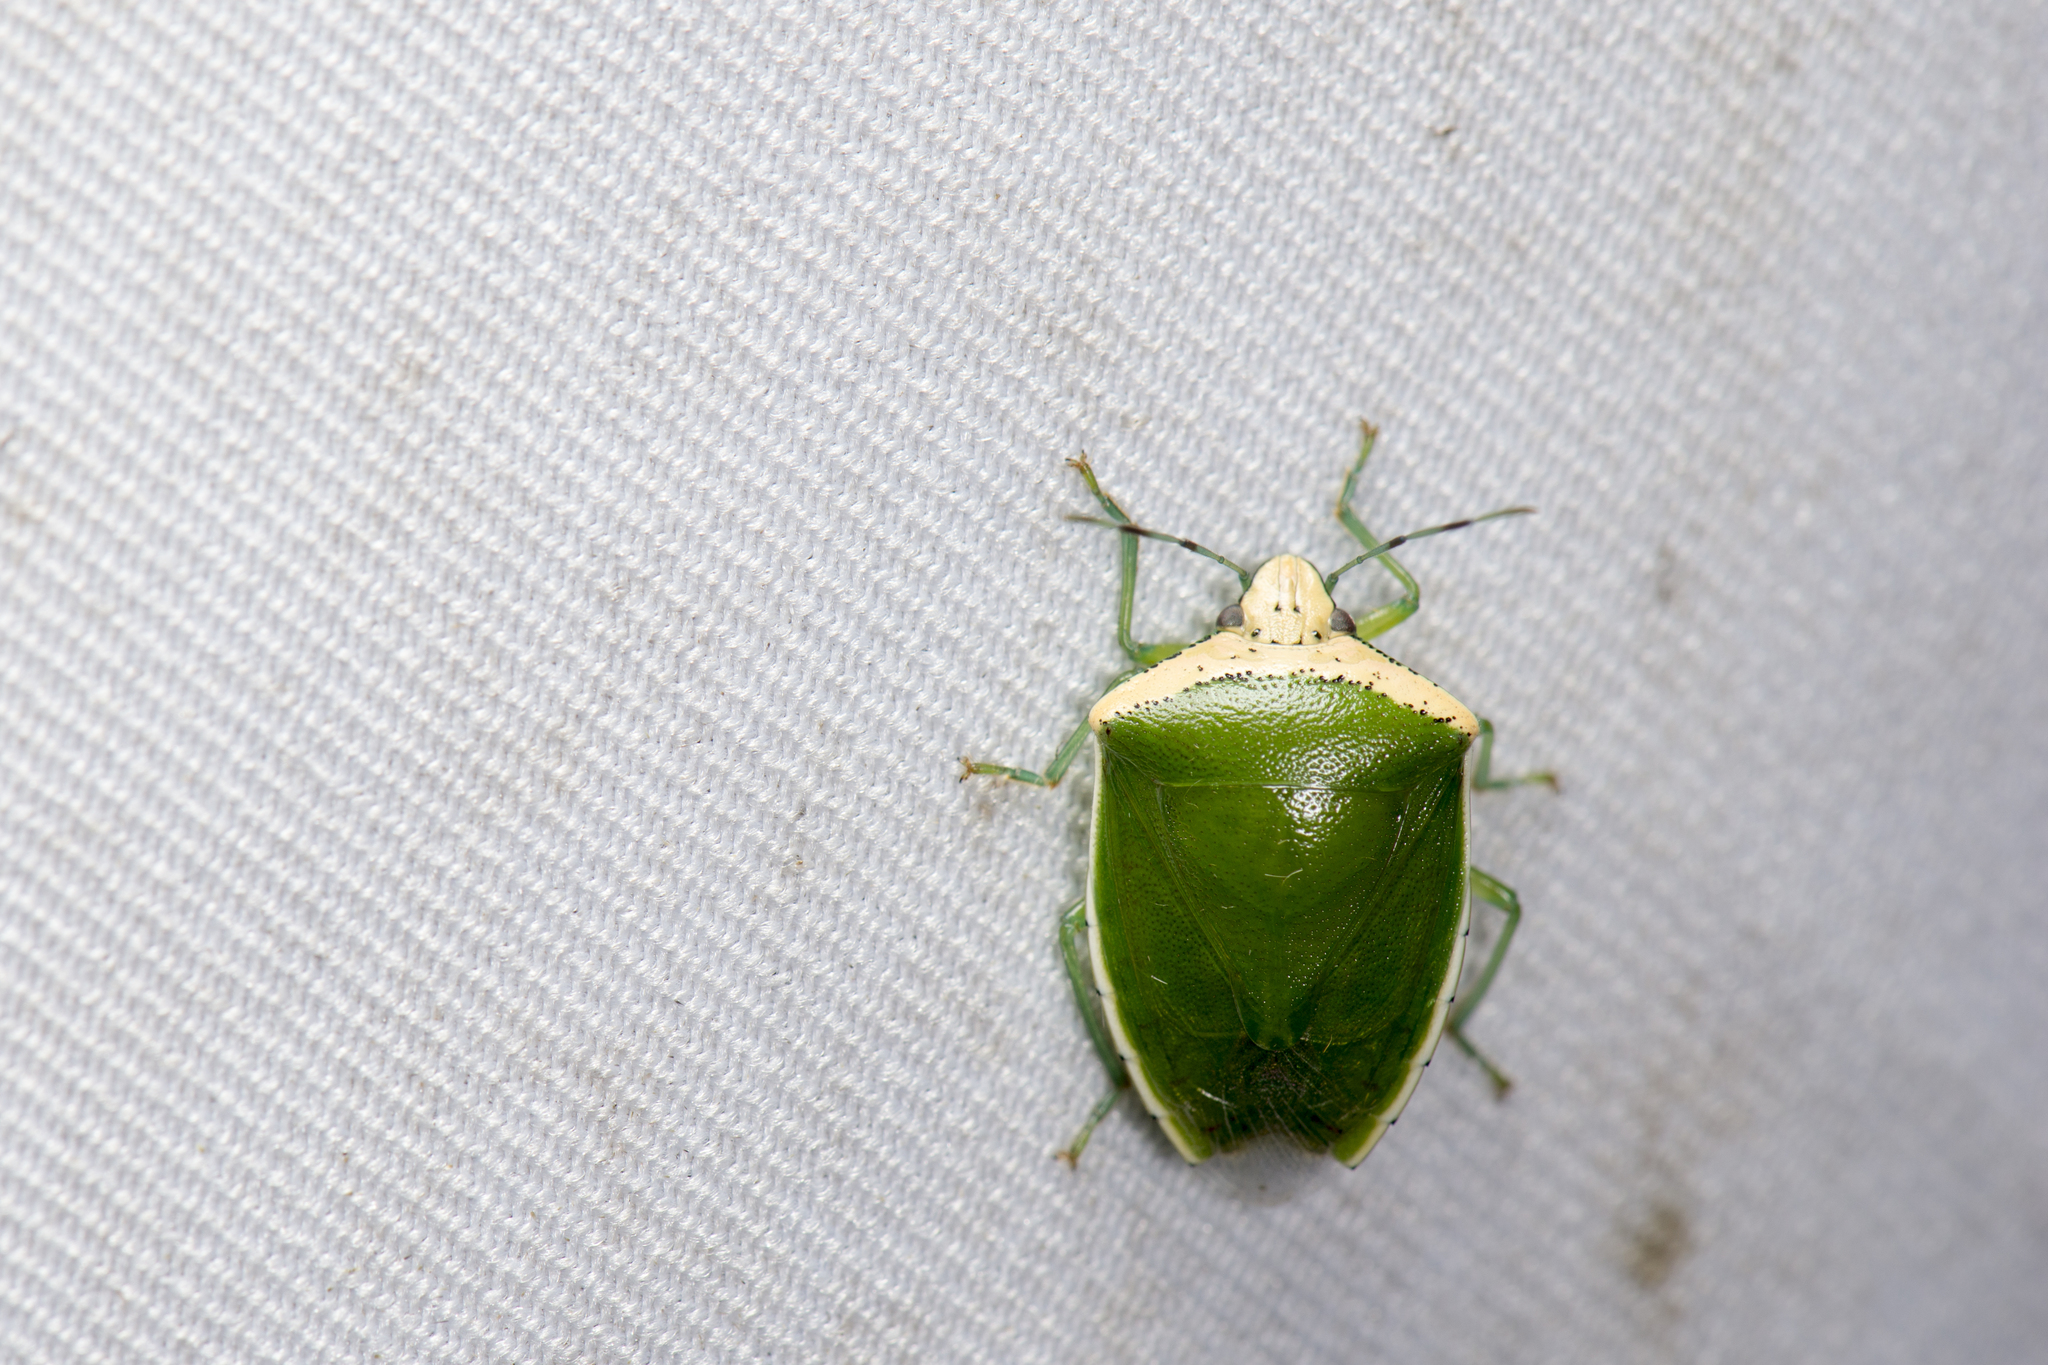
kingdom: Animalia
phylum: Arthropoda
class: Insecta
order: Hemiptera
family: Pentatomidae
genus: Glaucias
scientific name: Glaucias crassus
